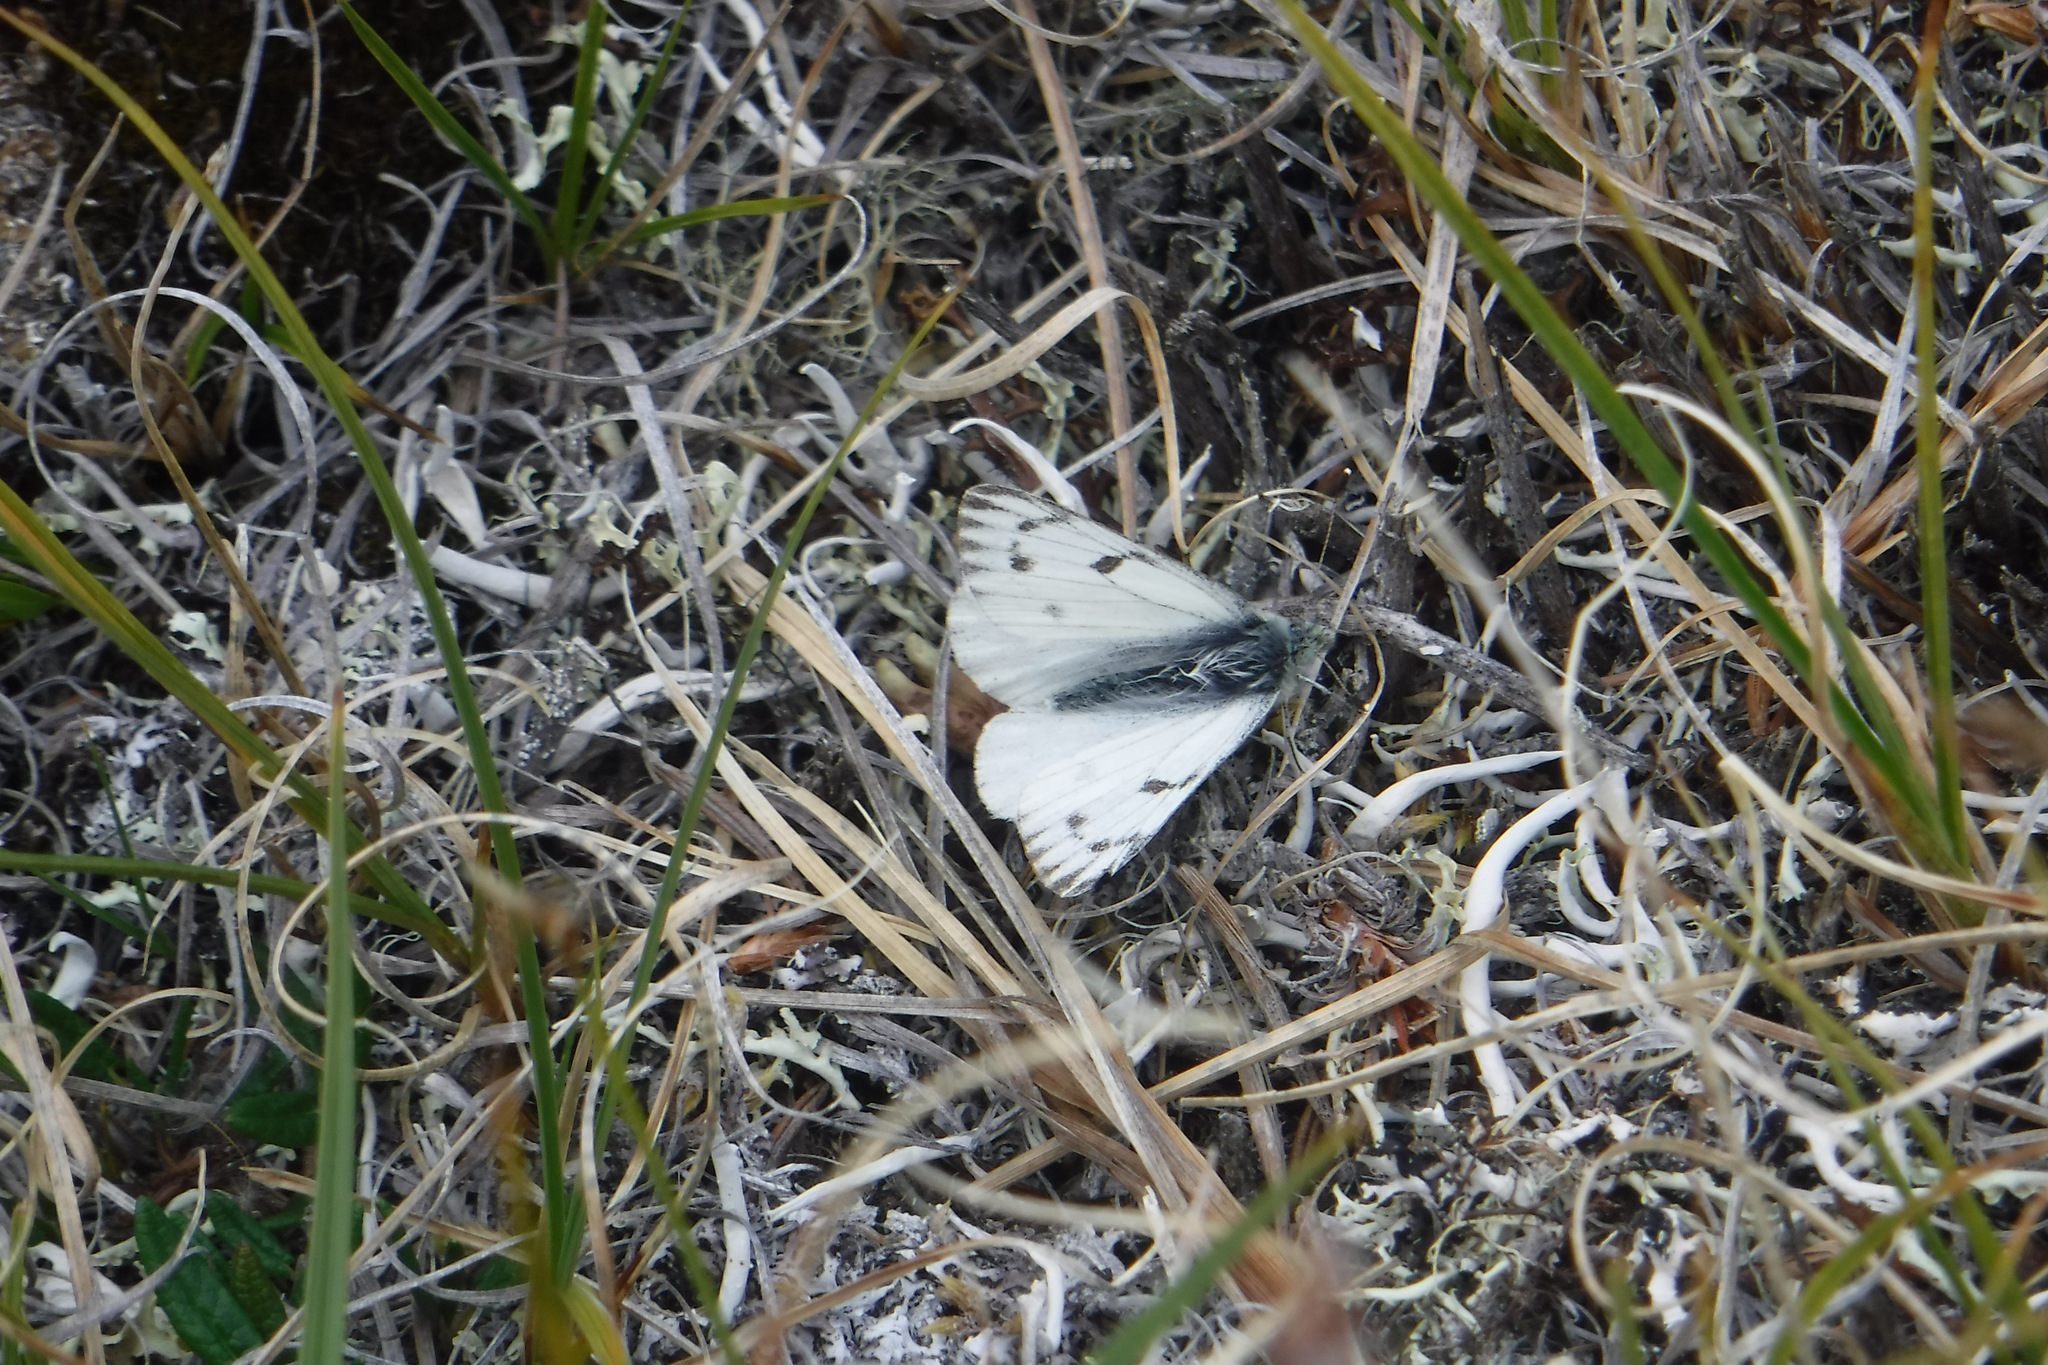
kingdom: Animalia
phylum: Arthropoda
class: Insecta
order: Lepidoptera
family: Pieridae
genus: Pontia
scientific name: Pontia occidentalis
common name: Western white
